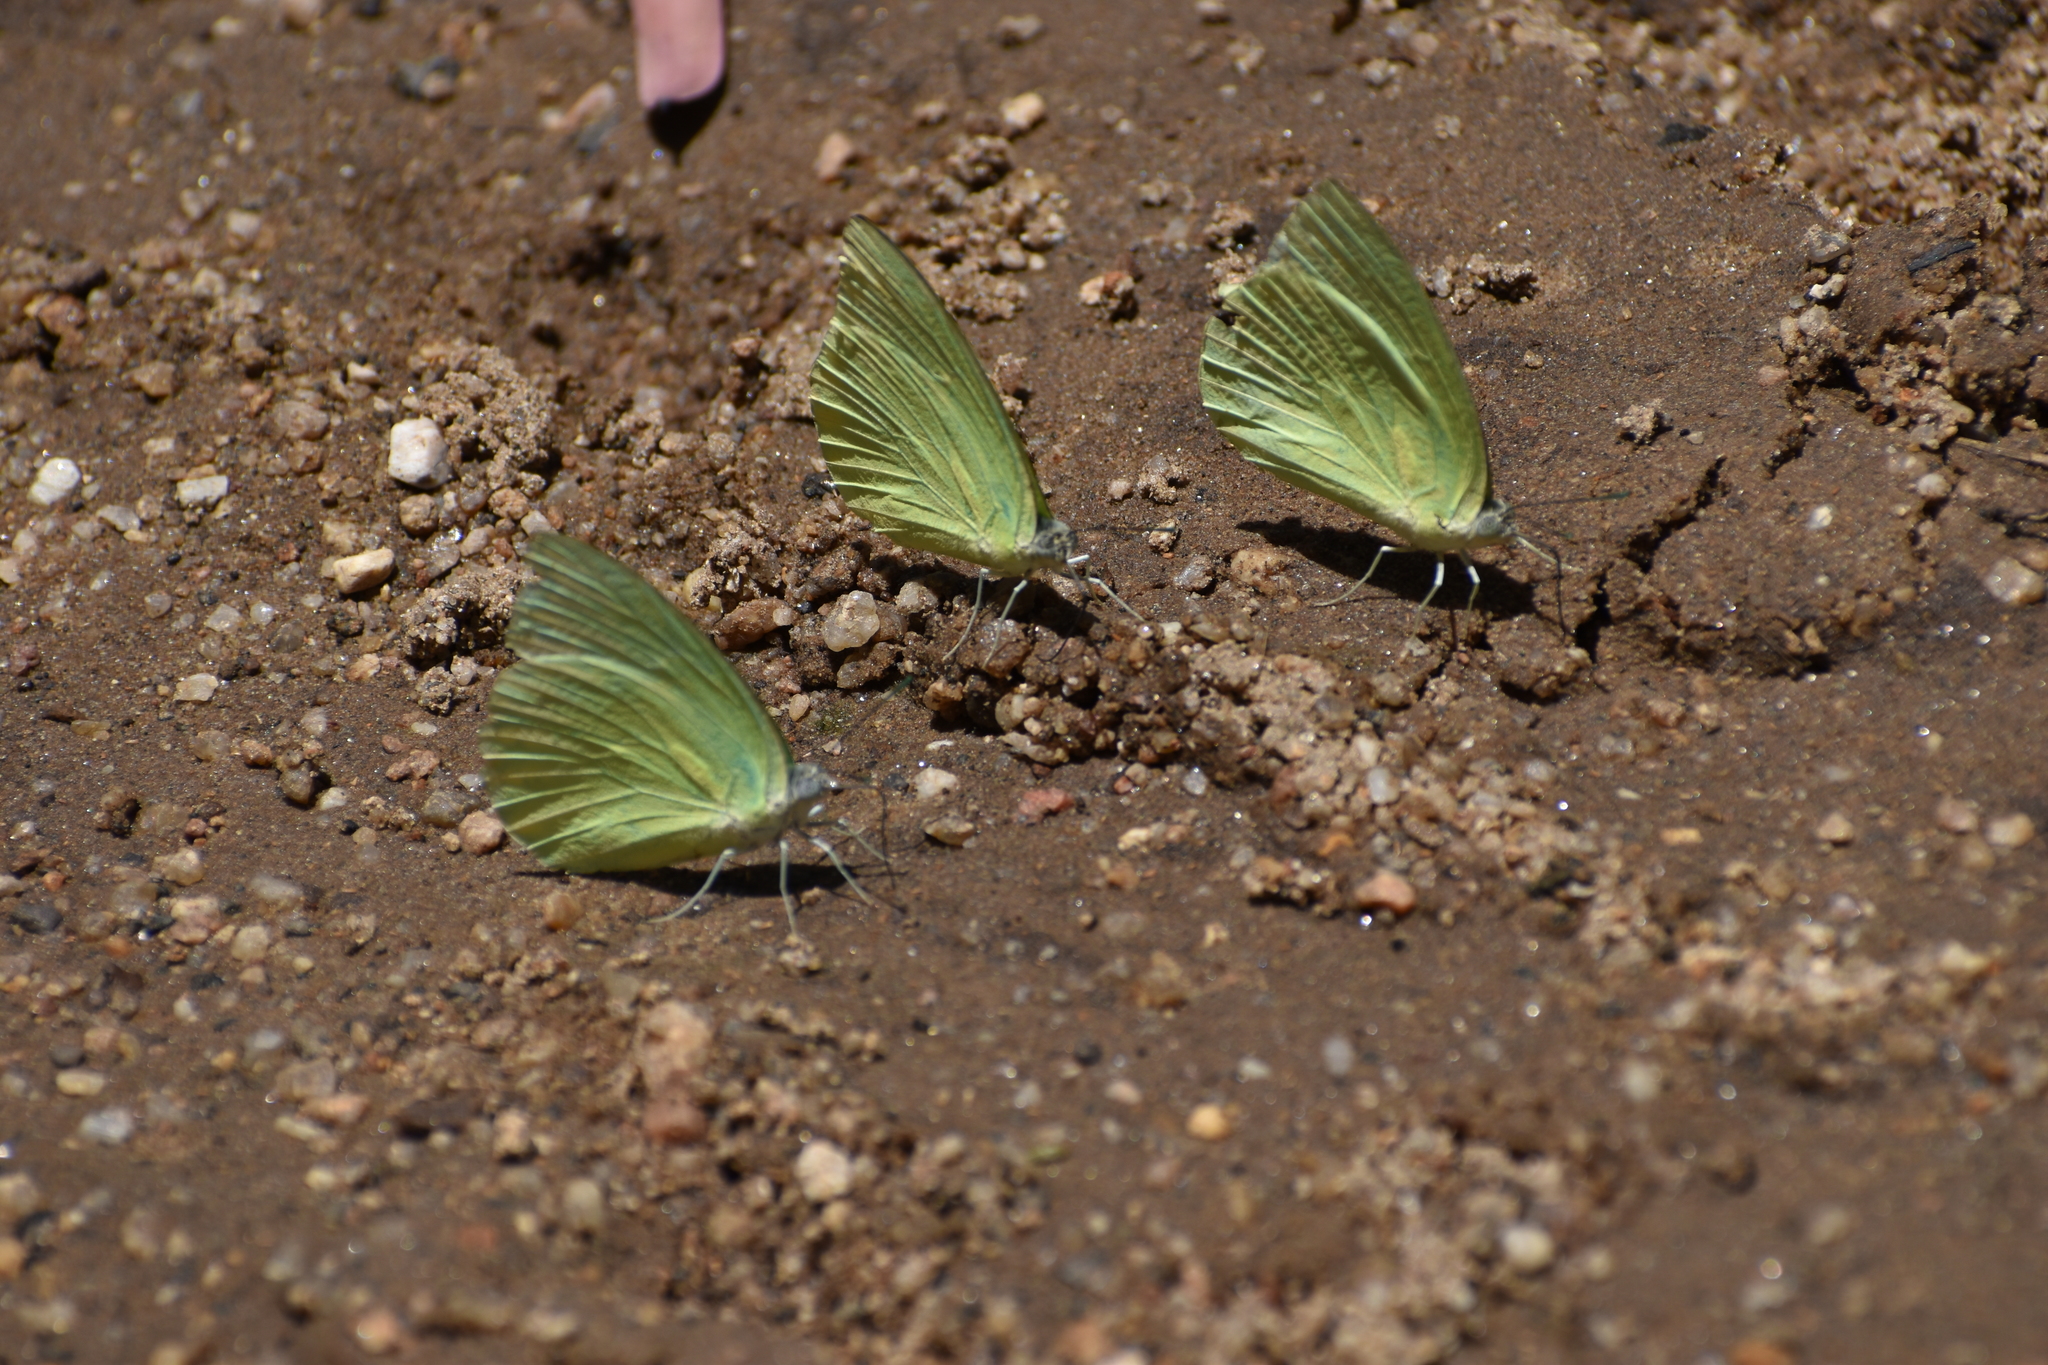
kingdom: Animalia
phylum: Arthropoda
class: Insecta
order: Lepidoptera
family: Pieridae
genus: Catopsilia
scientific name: Catopsilia pomona
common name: Common emigrant
